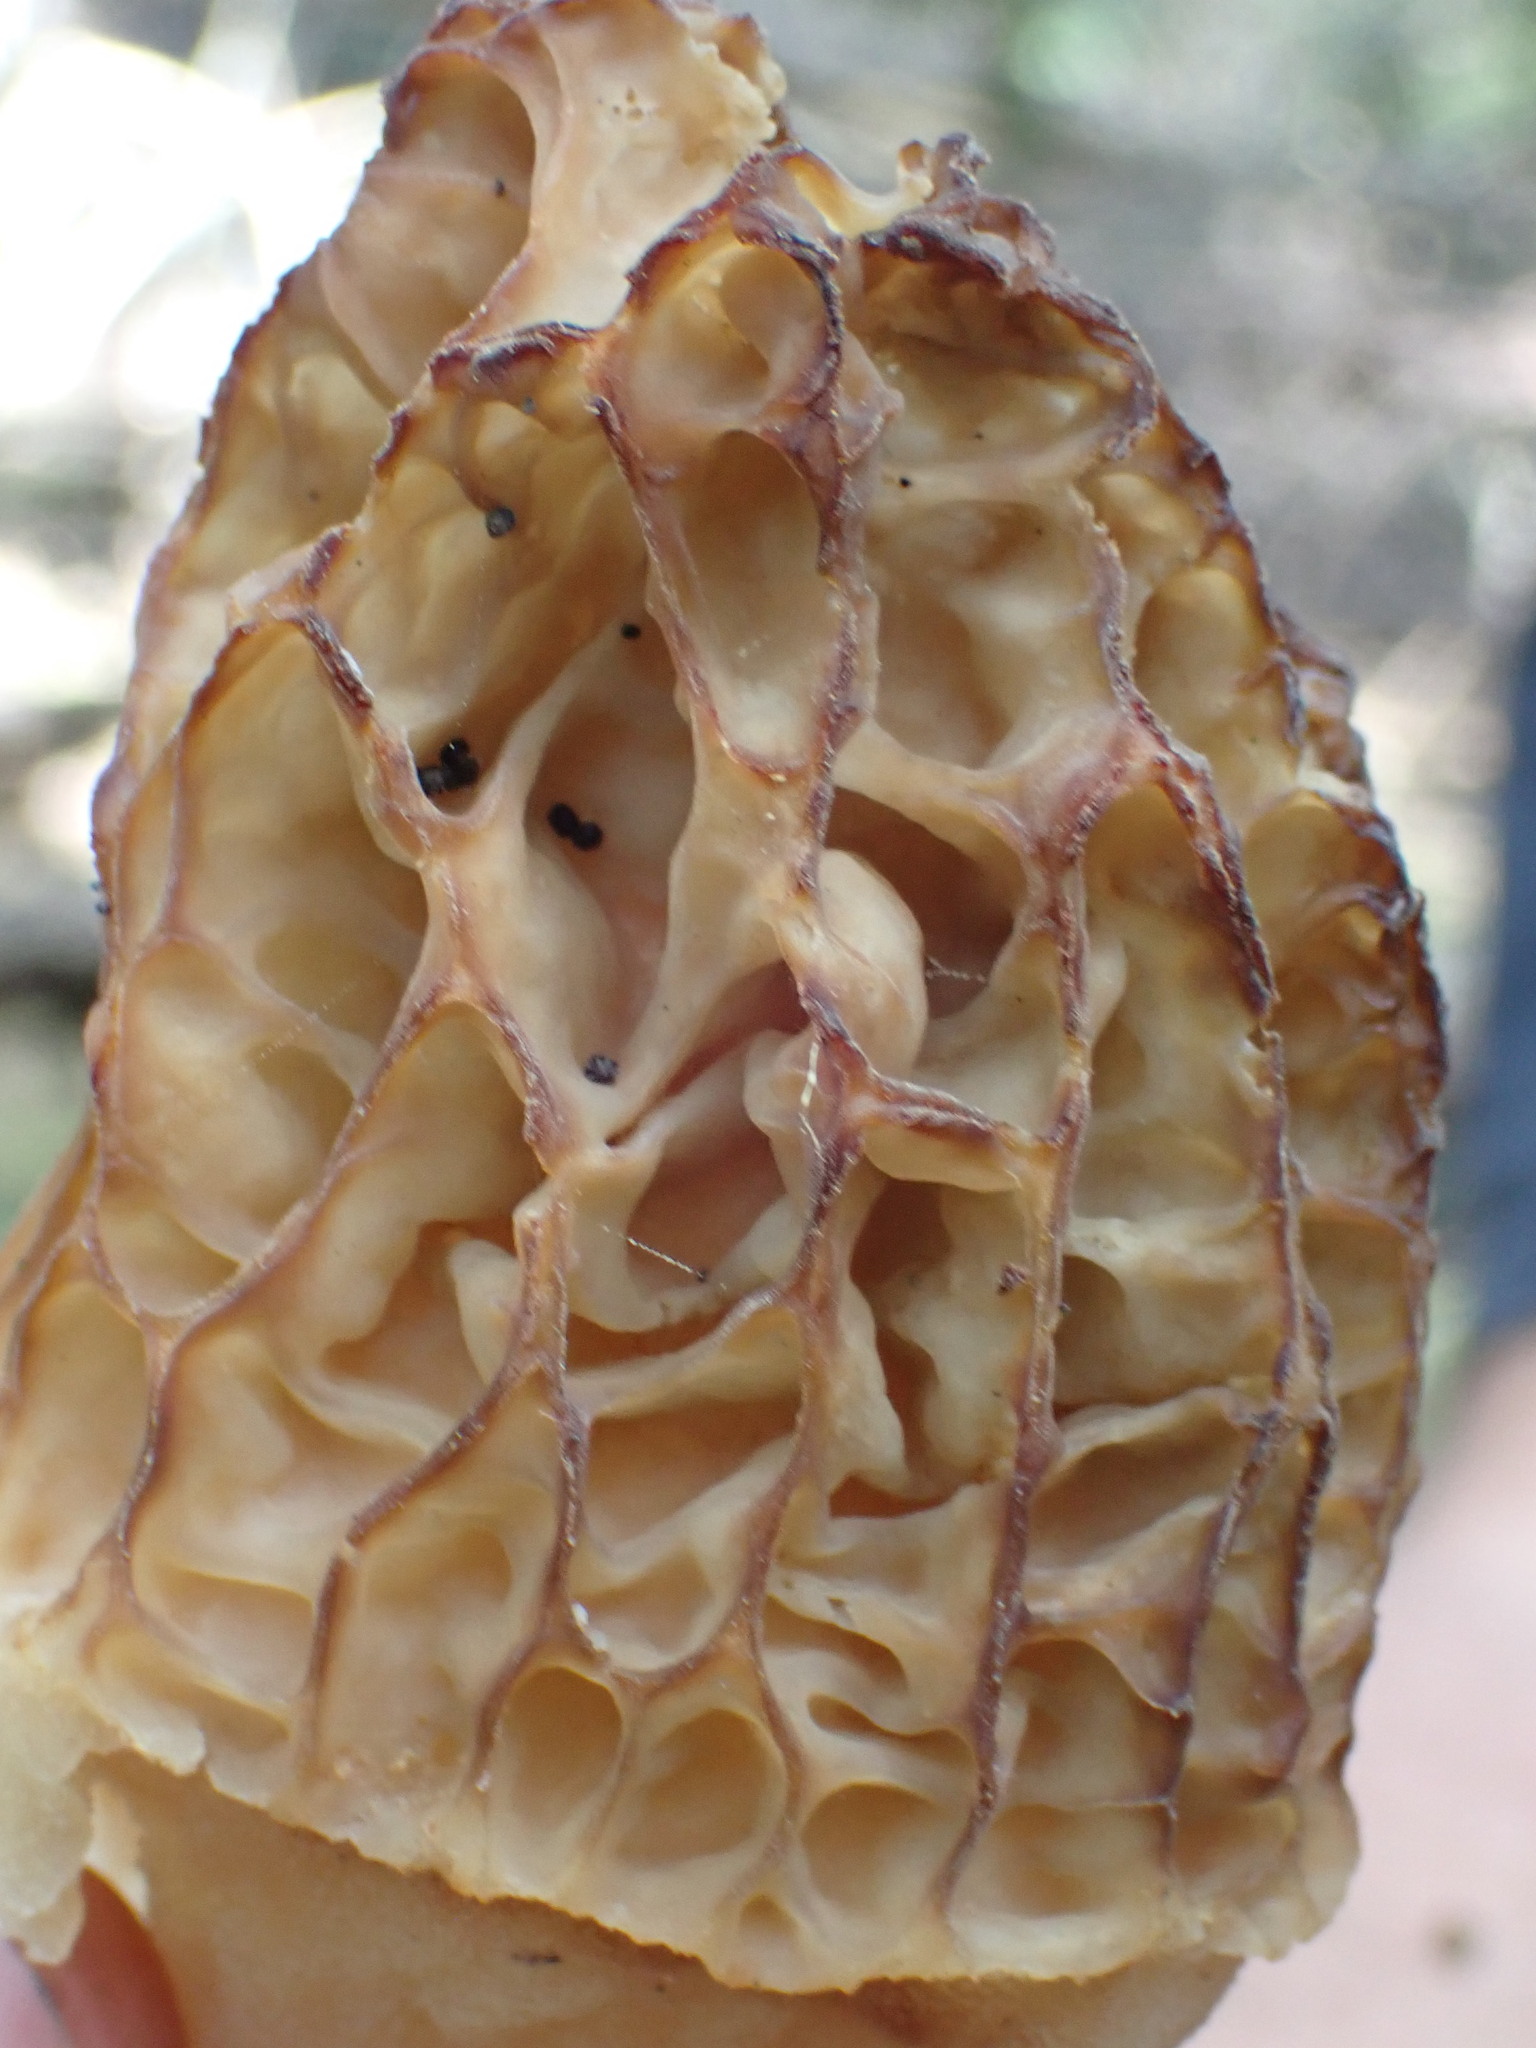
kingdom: Fungi
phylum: Ascomycota
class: Pezizomycetes
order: Pezizales
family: Morchellaceae
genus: Morchella
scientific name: Morchella tridentina
